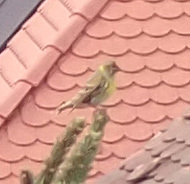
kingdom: Animalia
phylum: Chordata
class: Aves
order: Passeriformes
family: Fringillidae
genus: Serinus
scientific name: Serinus serinus
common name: European serin
